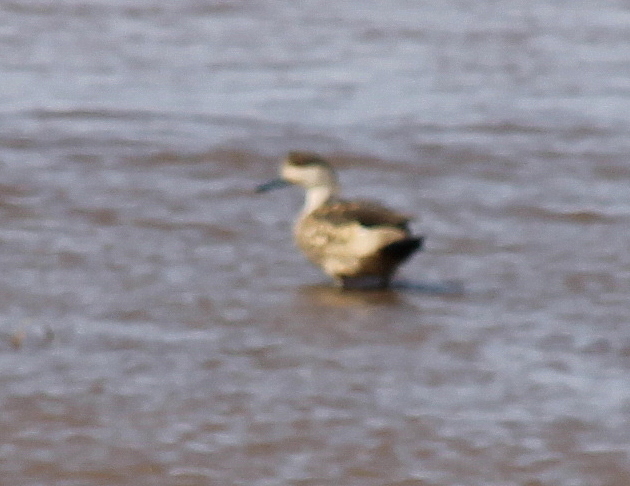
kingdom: Animalia
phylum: Chordata
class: Aves
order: Anseriformes
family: Anatidae
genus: Lophonetta
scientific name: Lophonetta specularioides
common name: Crested duck
